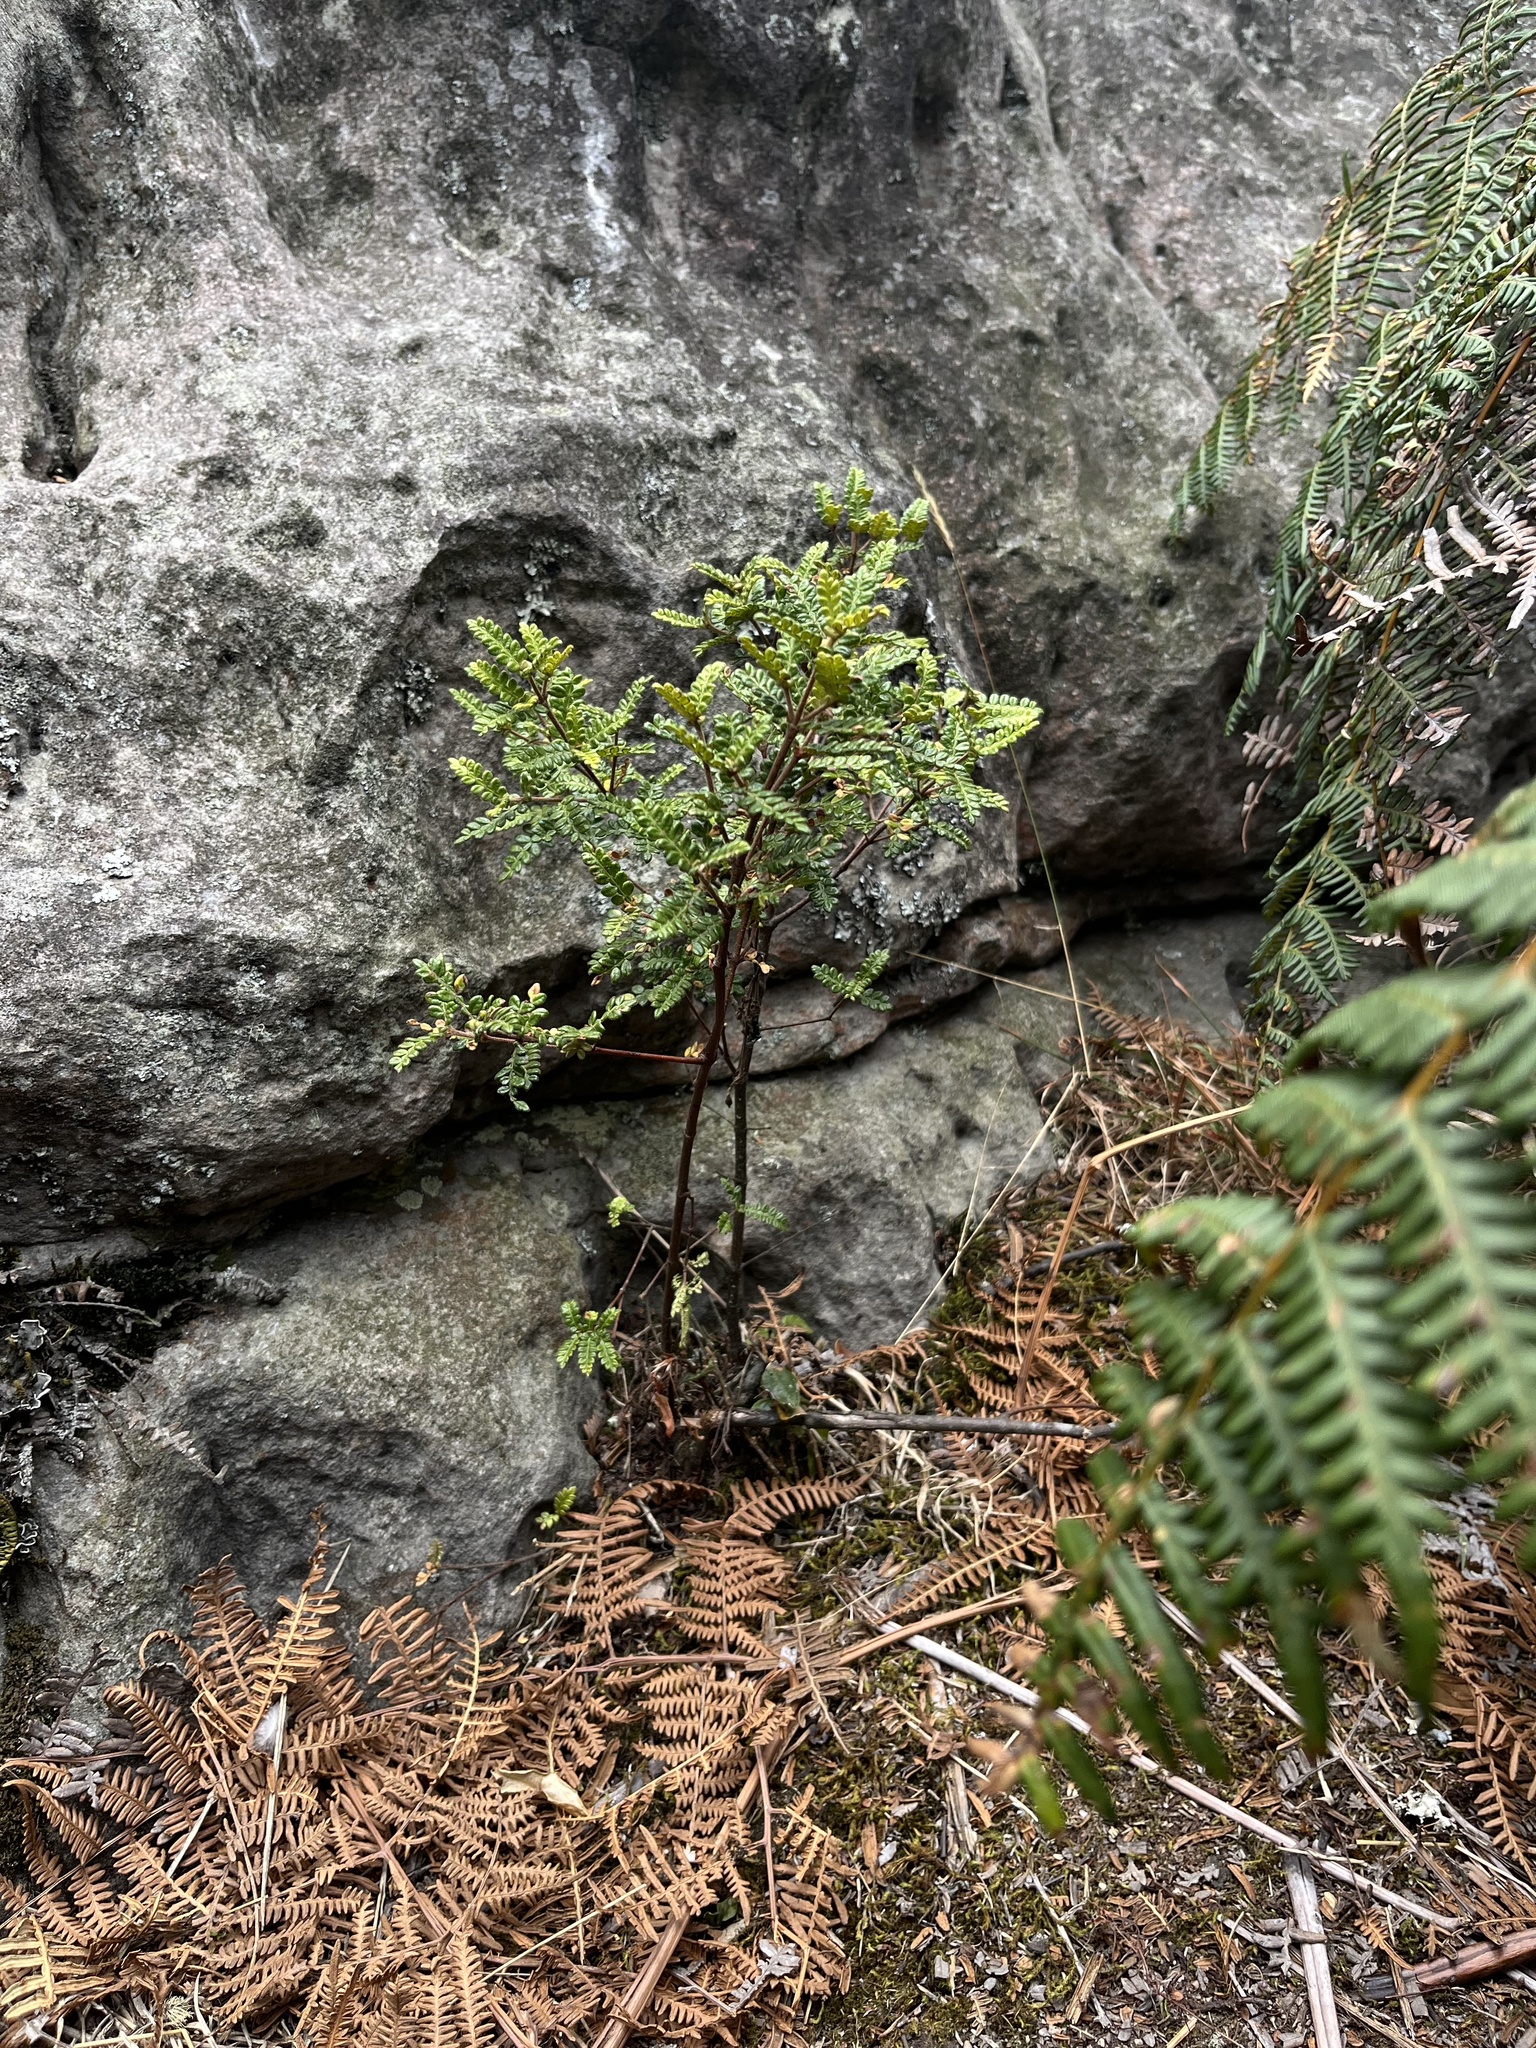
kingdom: Plantae
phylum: Tracheophyta
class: Magnoliopsida
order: Oxalidales
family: Cunoniaceae
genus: Weinmannia
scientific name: Weinmannia tomentosa
